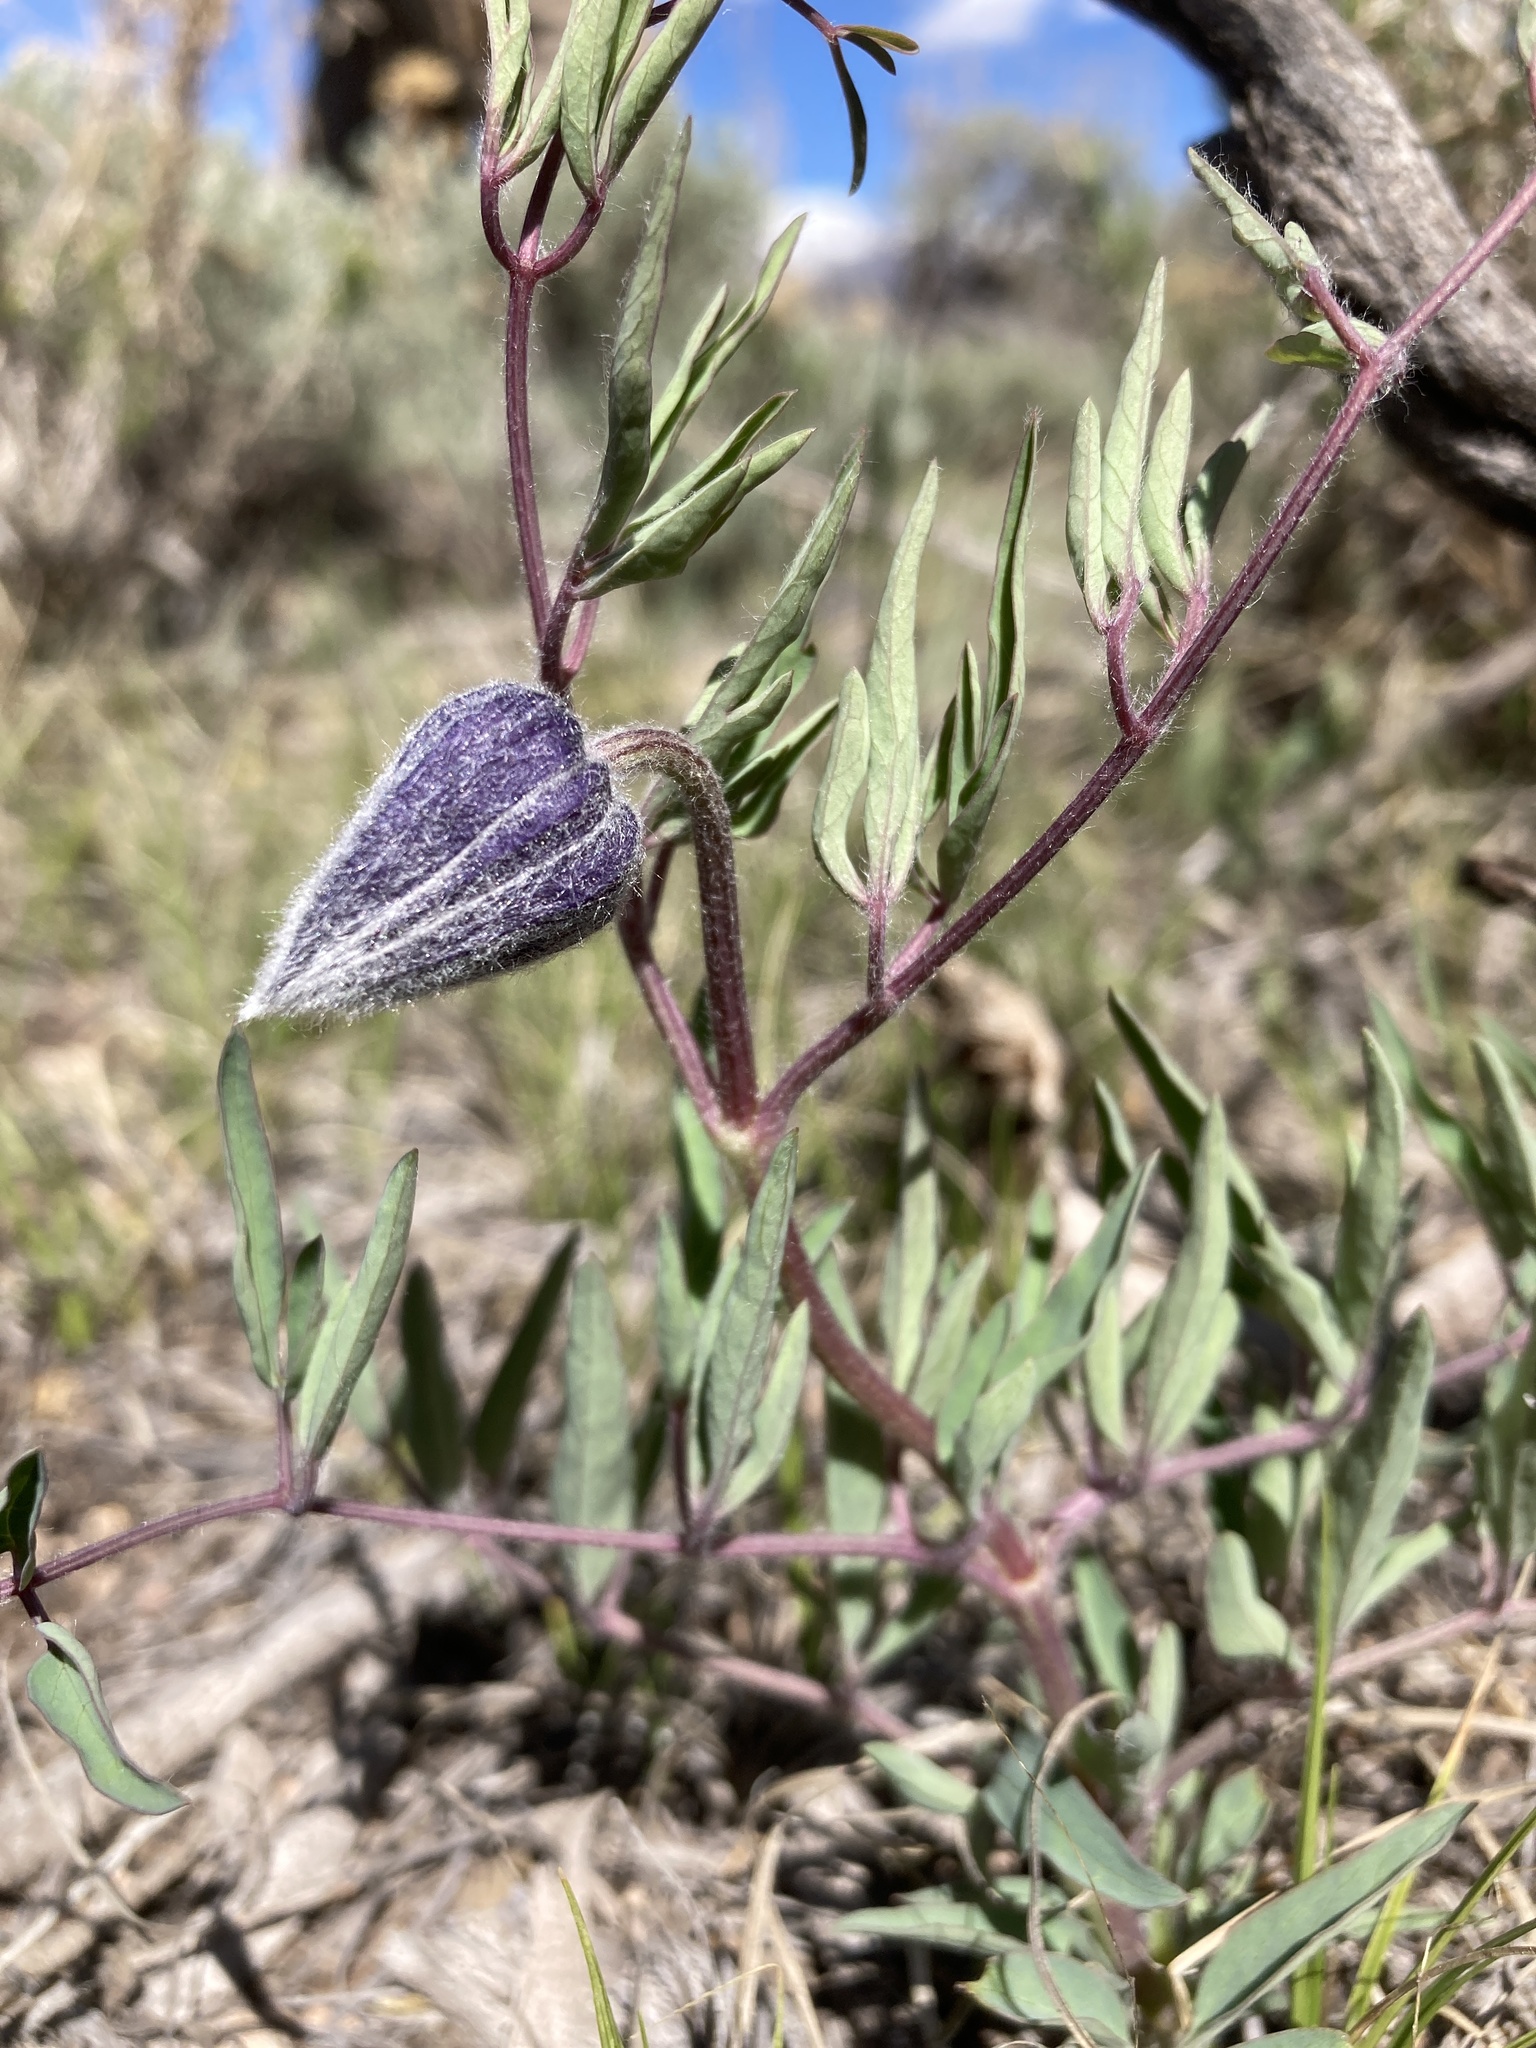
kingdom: Plantae
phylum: Tracheophyta
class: Magnoliopsida
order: Ranunculales
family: Ranunculaceae
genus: Clematis
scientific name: Clematis hirsutissima
